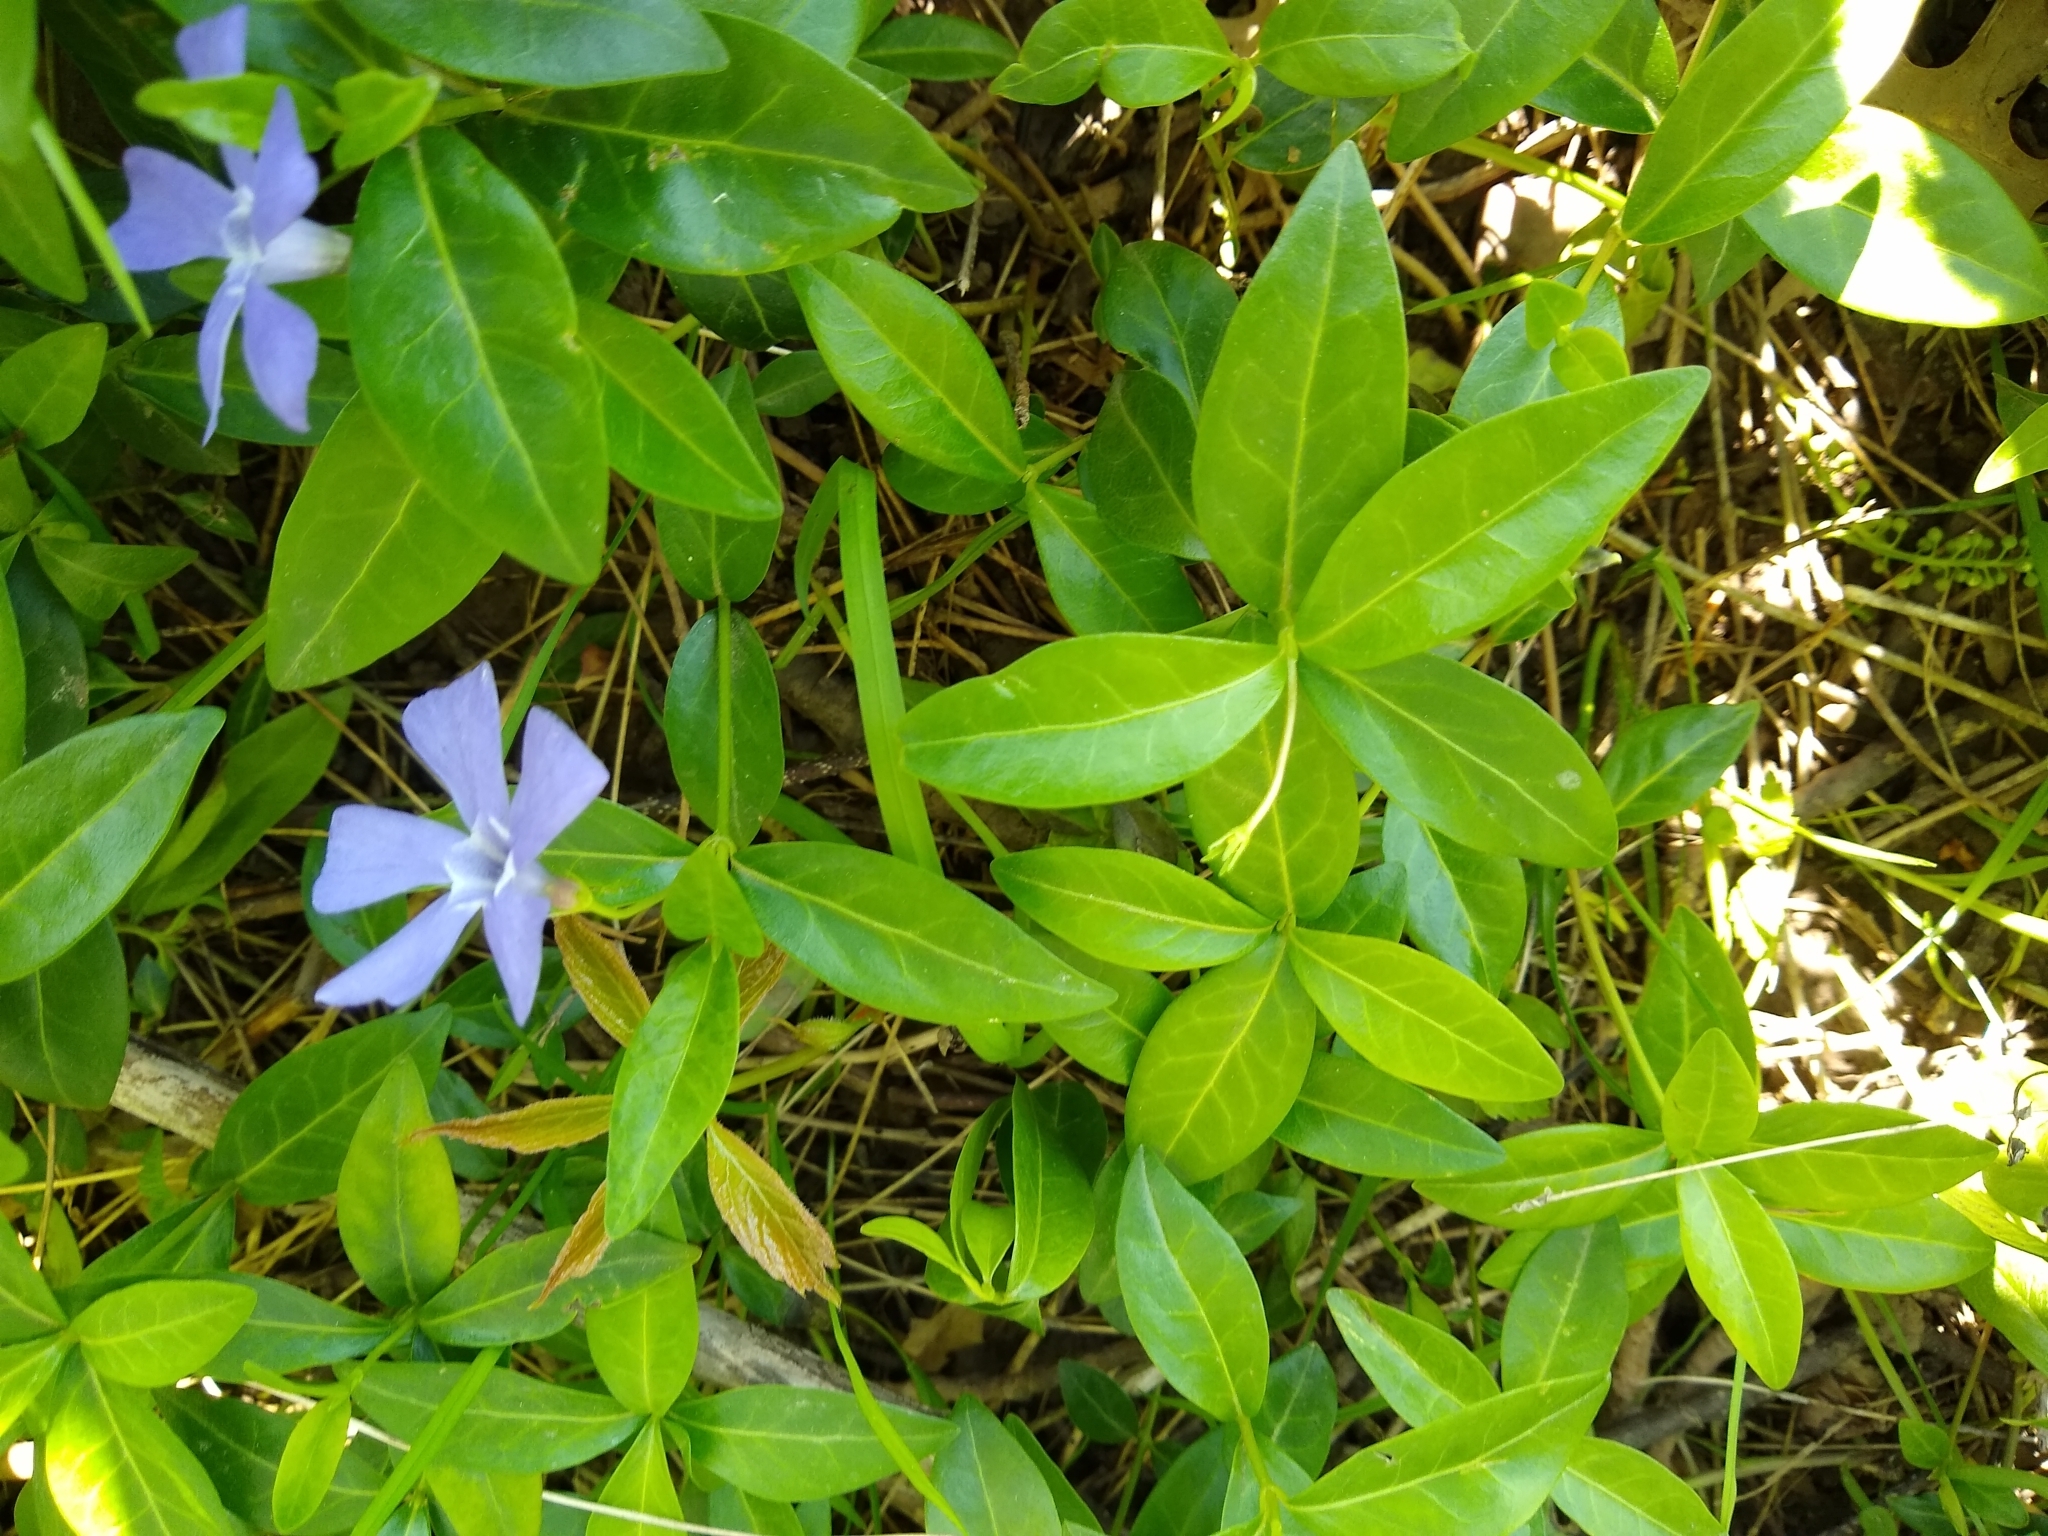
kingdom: Plantae
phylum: Tracheophyta
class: Magnoliopsida
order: Gentianales
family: Apocynaceae
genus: Vinca
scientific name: Vinca minor
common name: Lesser periwinkle
